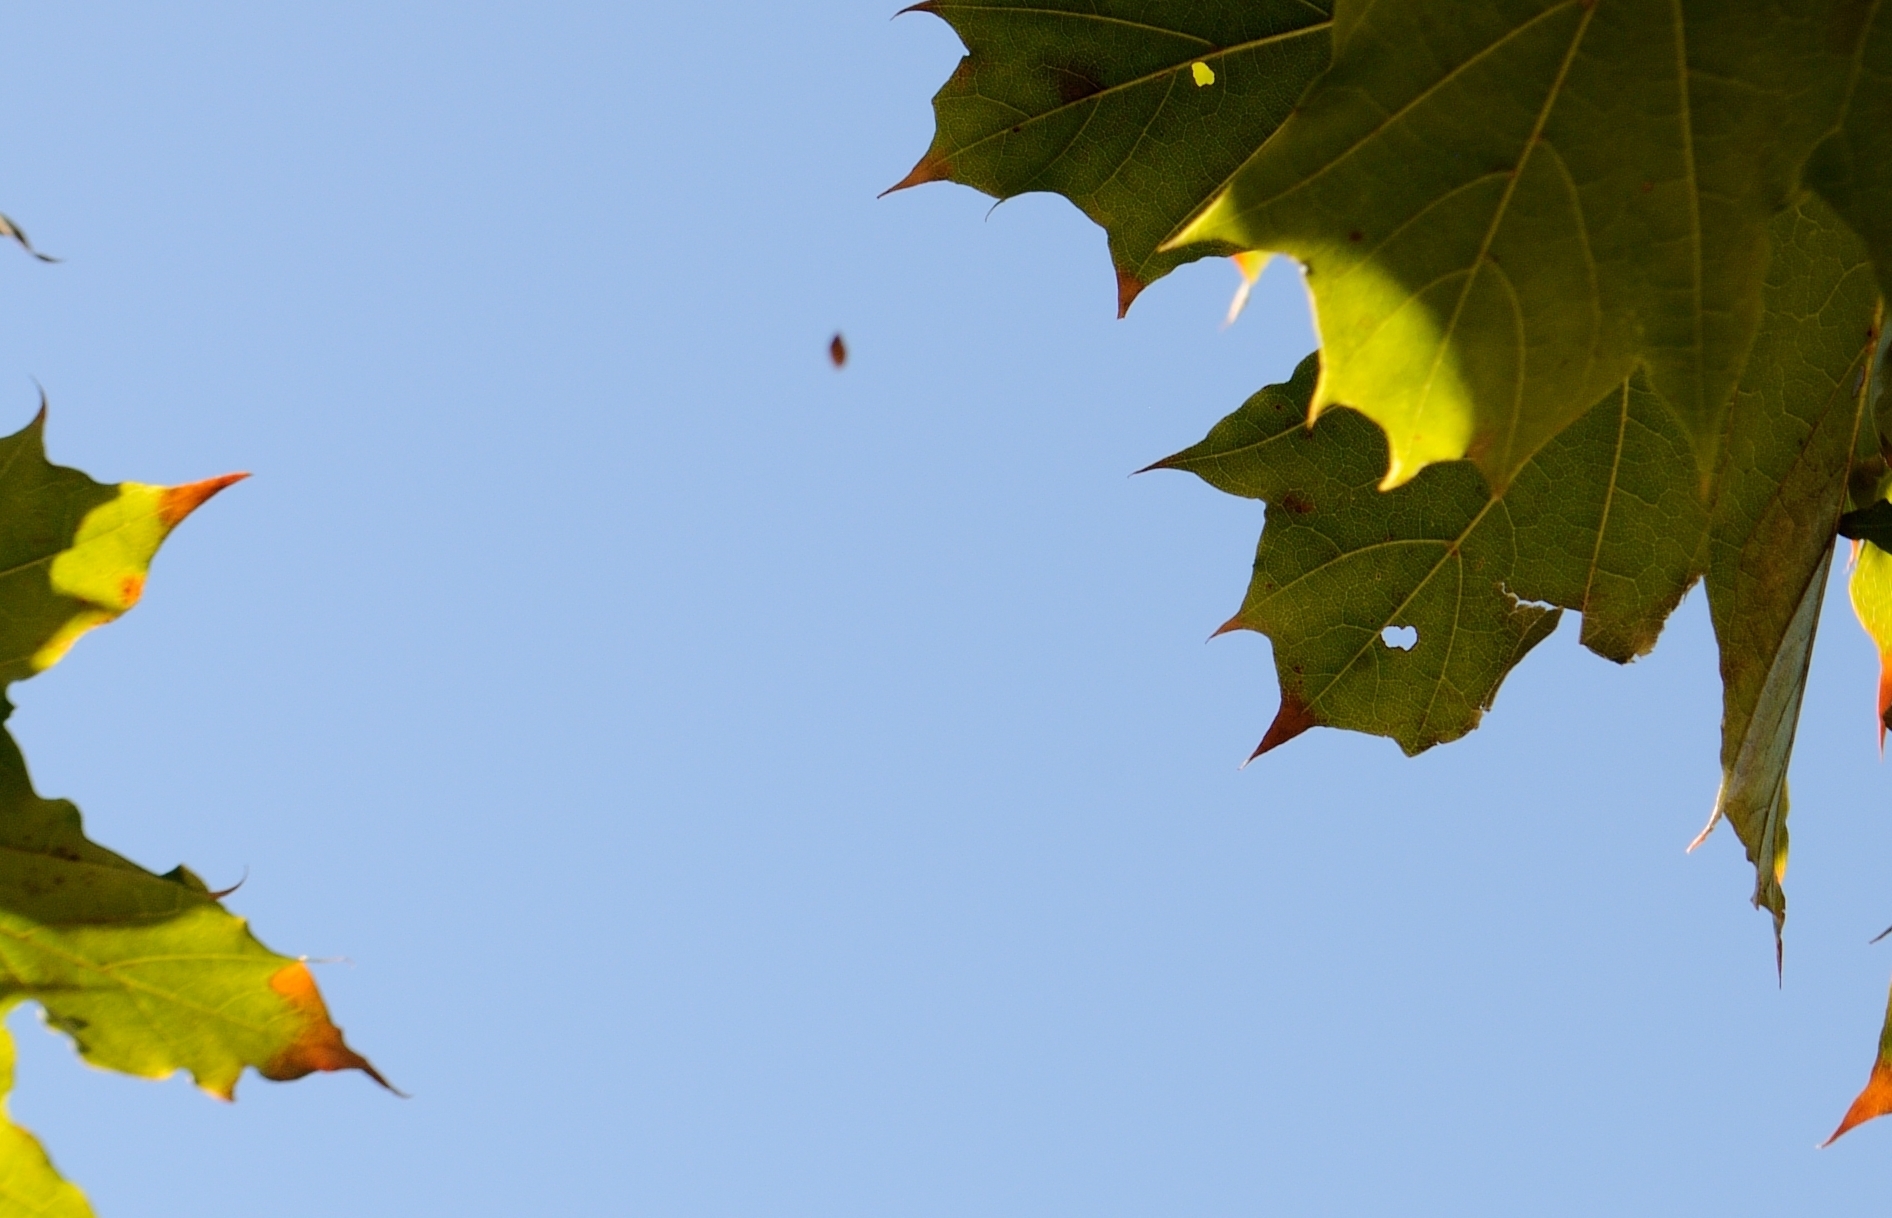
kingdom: Animalia
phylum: Arthropoda
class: Insecta
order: Lepidoptera
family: Heliozelidae
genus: Coptodisca
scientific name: Coptodisca splendoriferella
